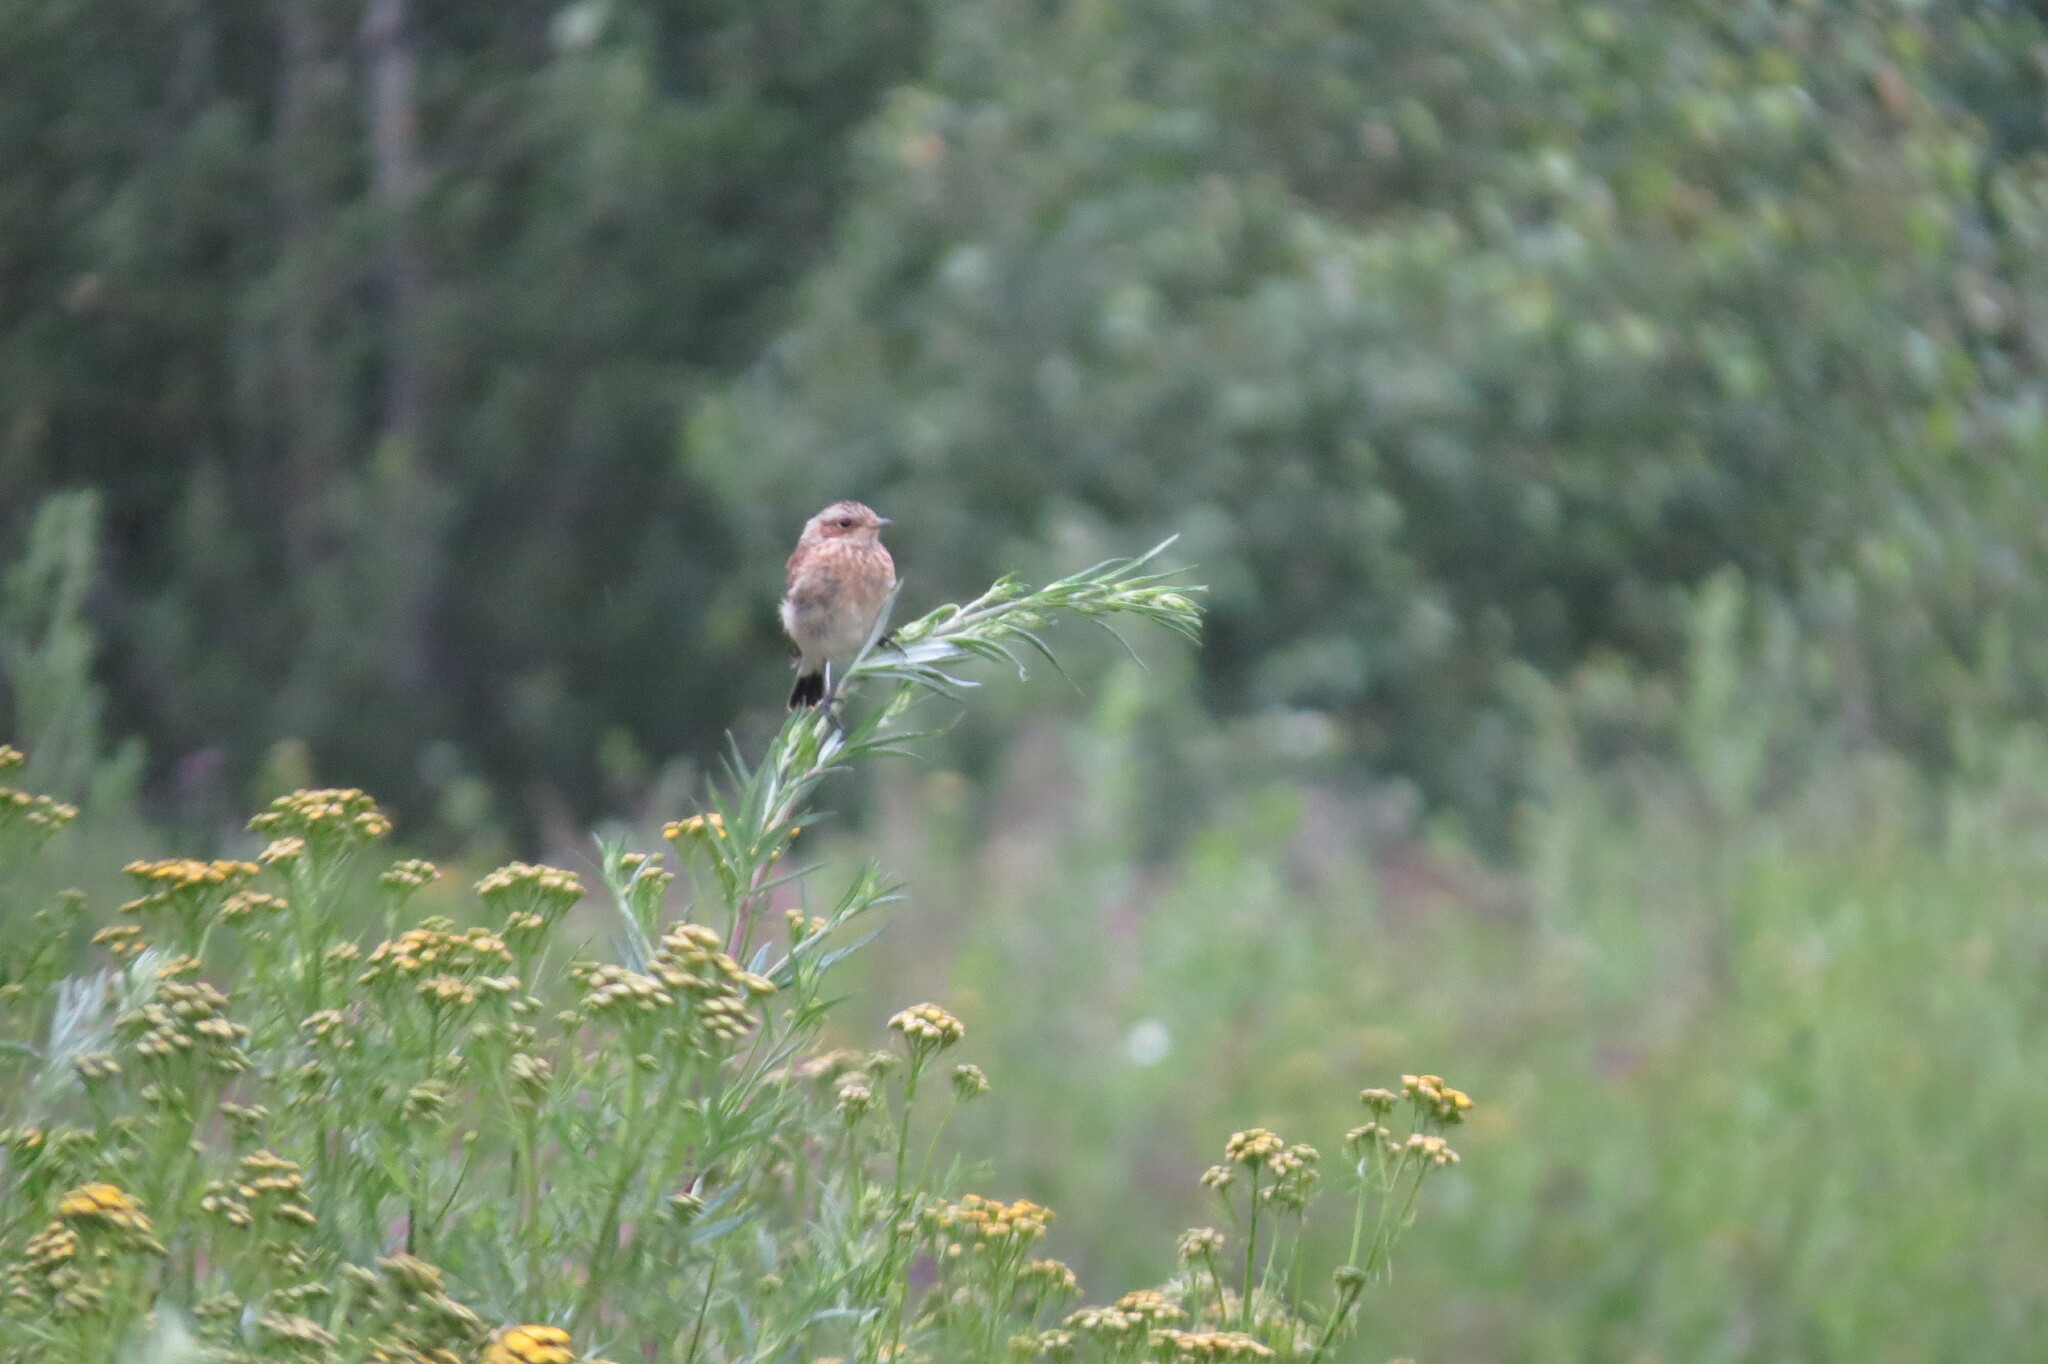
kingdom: Animalia
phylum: Chordata
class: Aves
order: Passeriformes
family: Muscicapidae
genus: Saxicola
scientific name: Saxicola rubetra
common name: Whinchat
